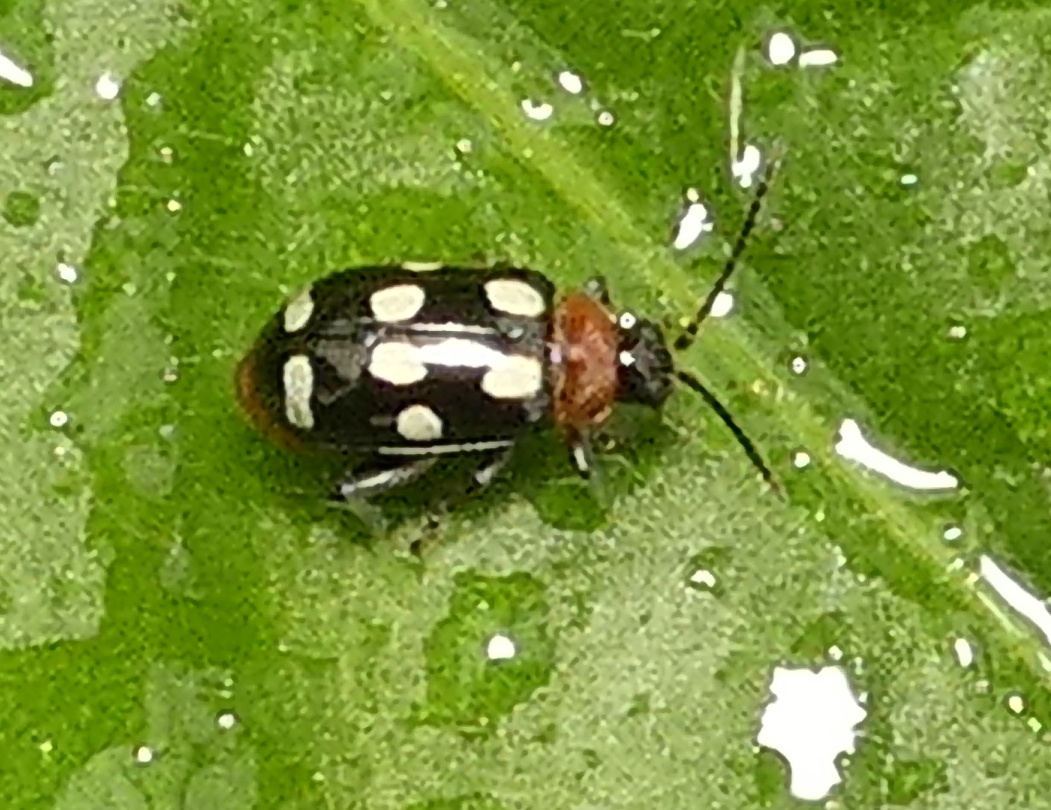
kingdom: Animalia
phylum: Arthropoda
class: Insecta
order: Coleoptera
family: Chrysomelidae
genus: Phenrica
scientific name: Phenrica austriaca
